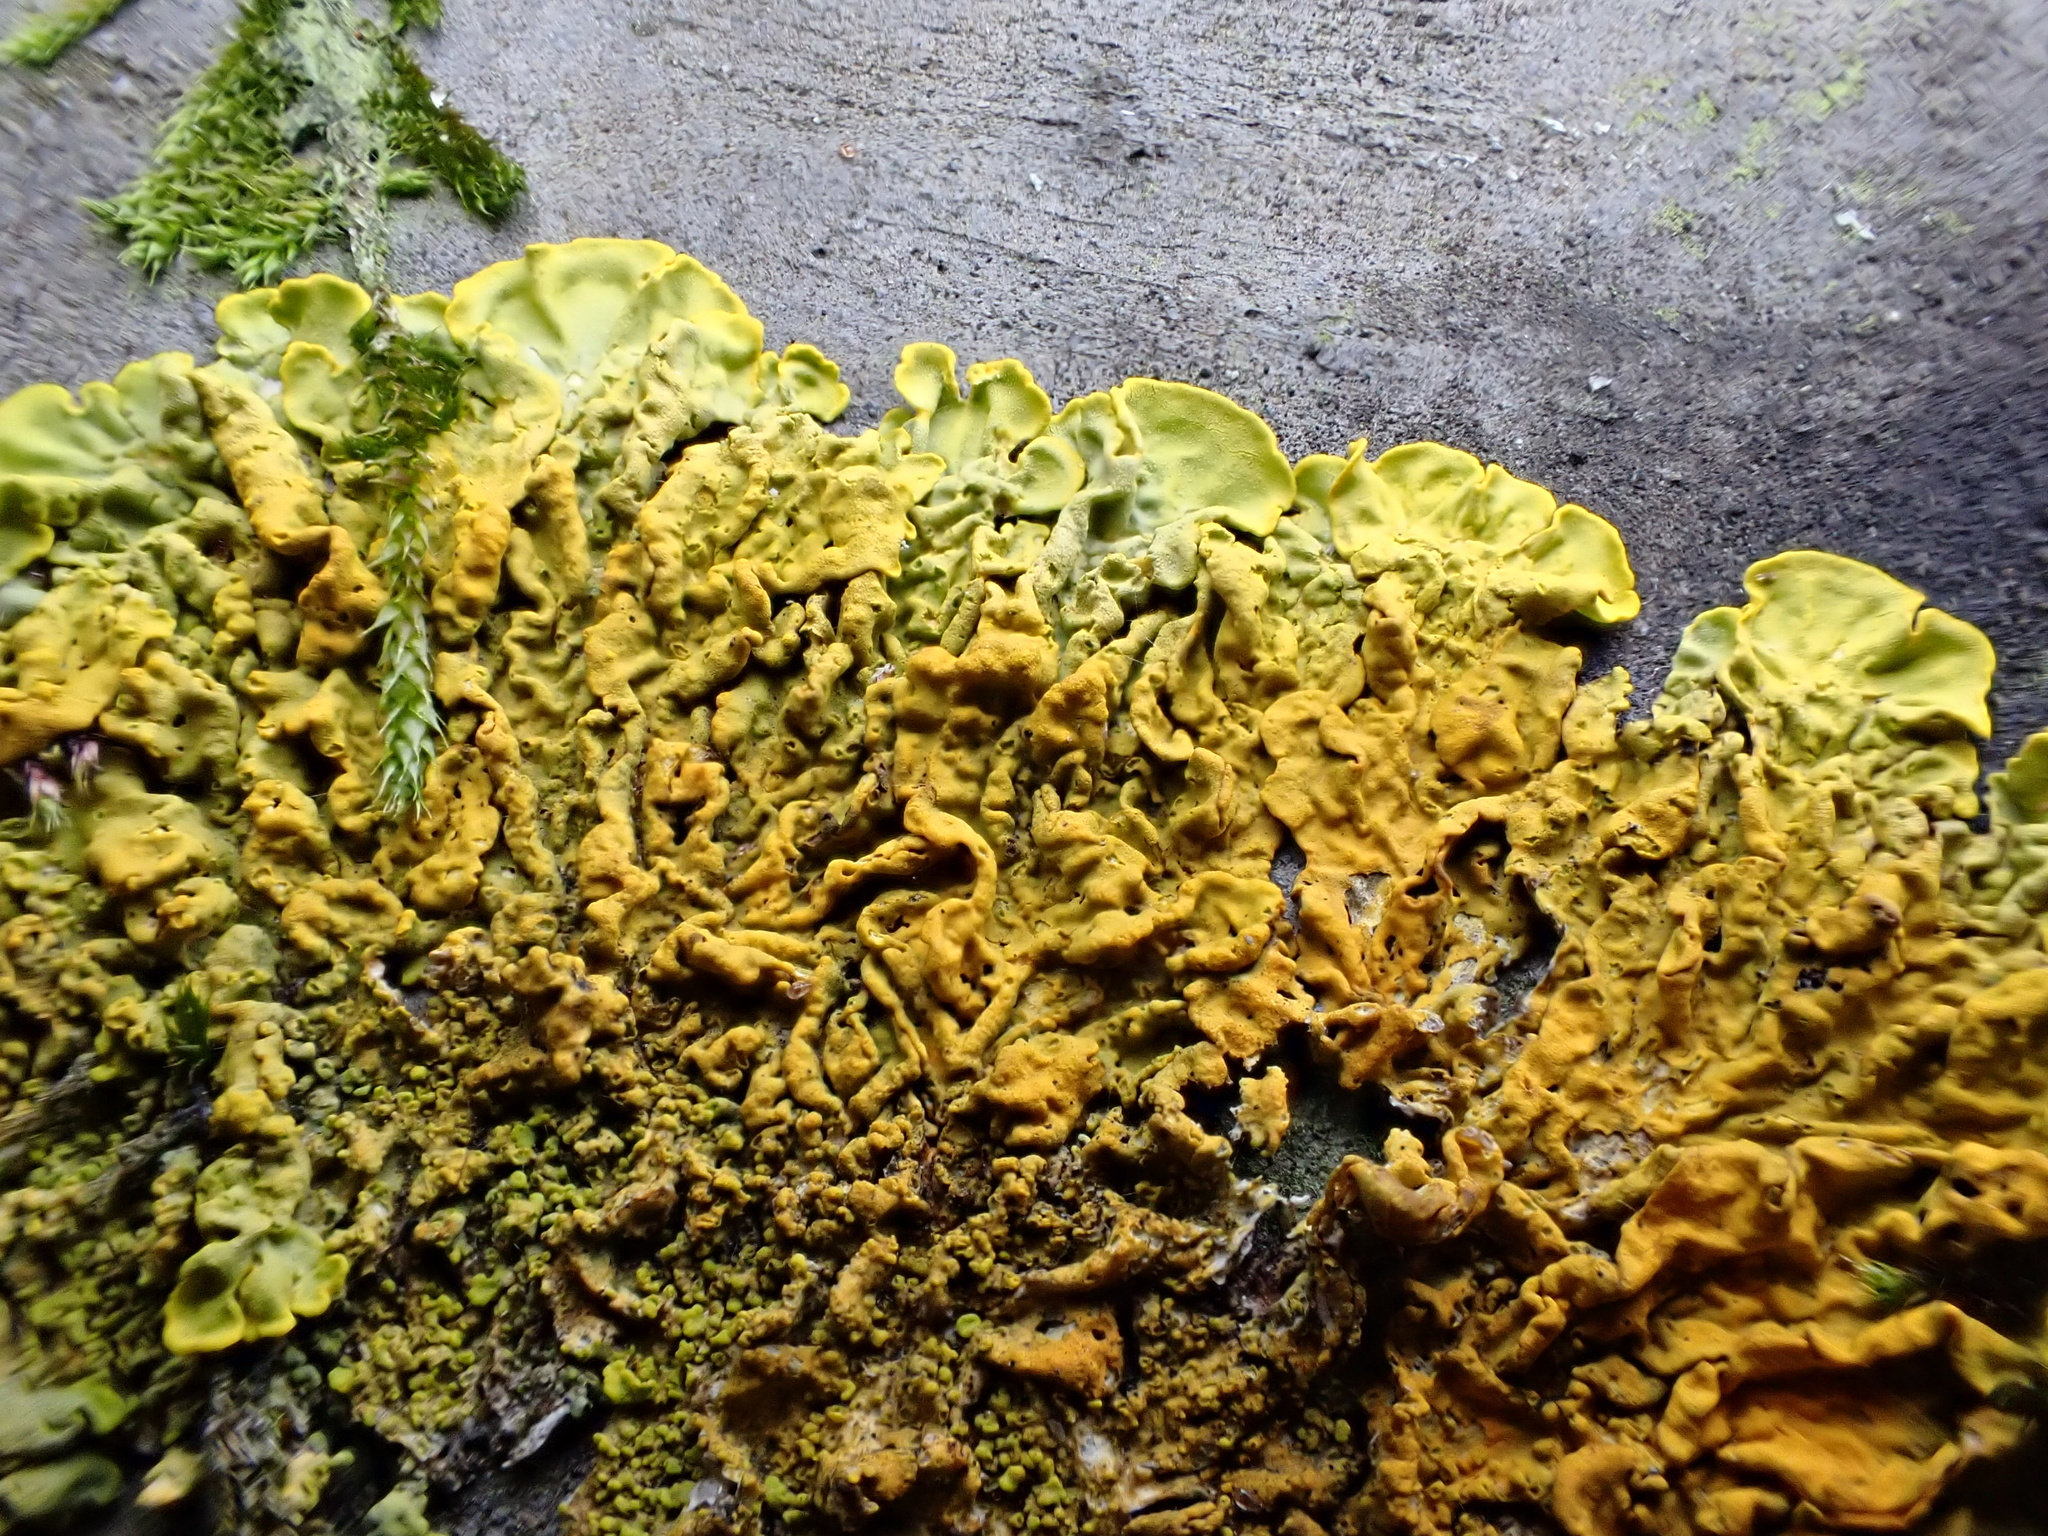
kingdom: Fungi
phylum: Ascomycota
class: Lecanoromycetes
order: Teloschistales
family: Teloschistaceae
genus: Xanthoria
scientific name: Xanthoria calcicola
